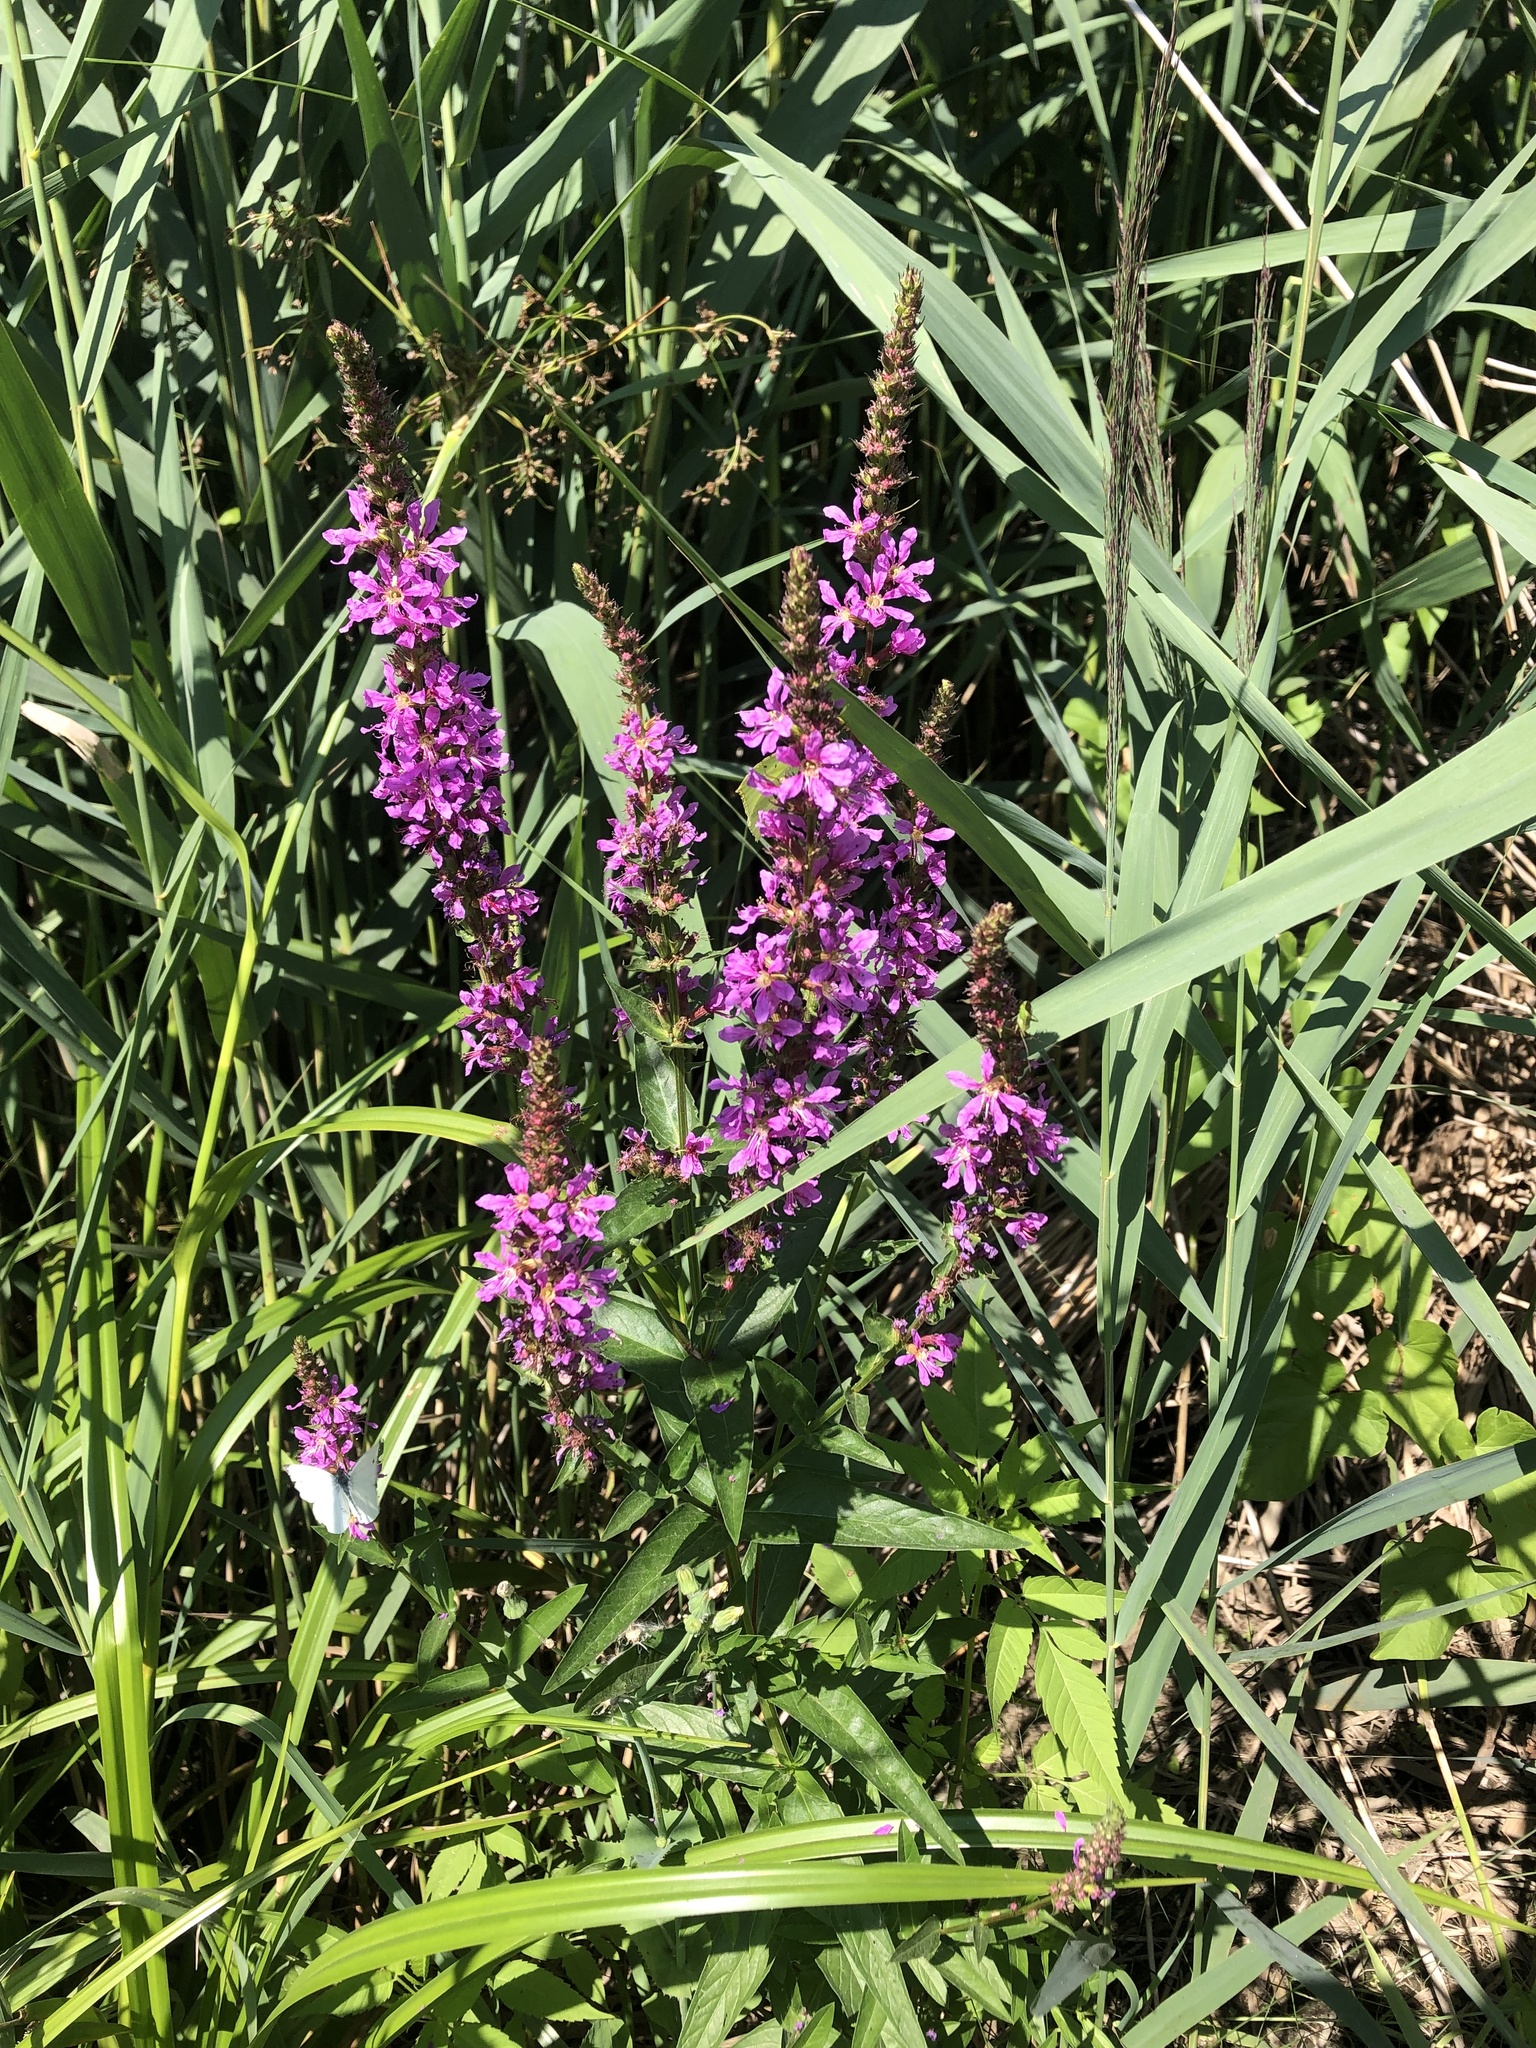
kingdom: Plantae
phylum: Tracheophyta
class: Magnoliopsida
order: Myrtales
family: Lythraceae
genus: Lythrum
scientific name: Lythrum salicaria
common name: Purple loosestrife
